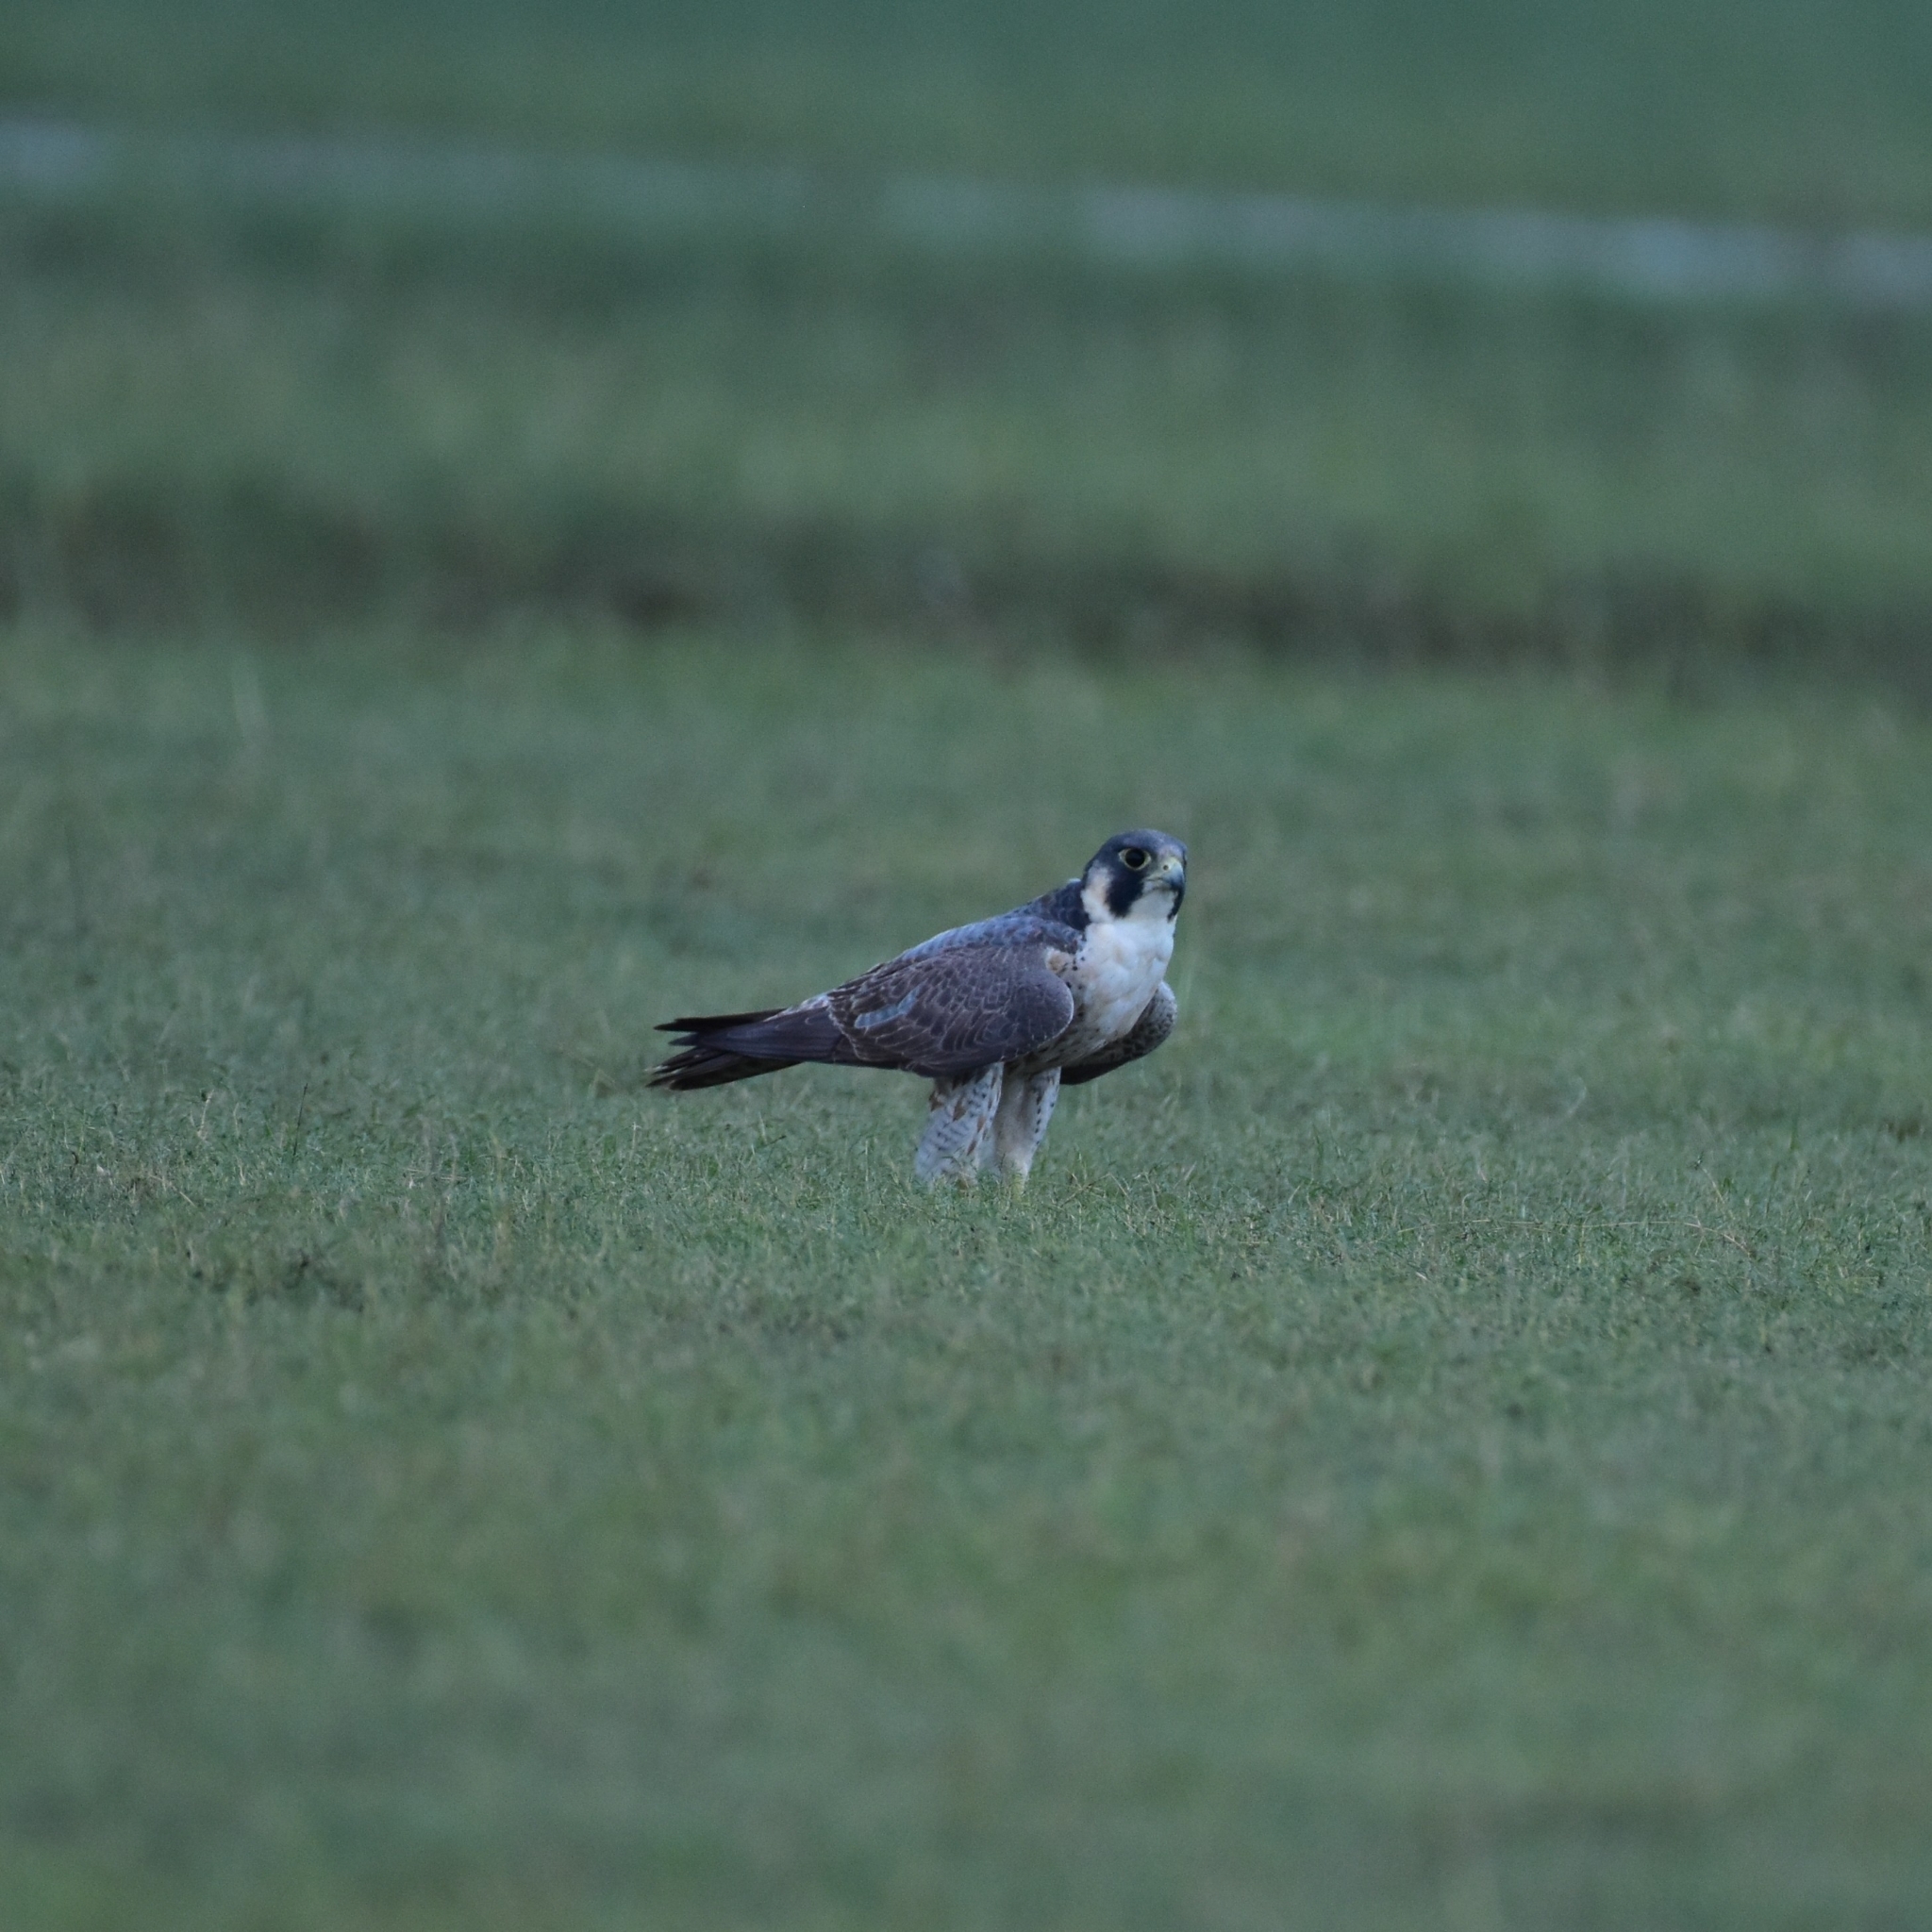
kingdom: Animalia
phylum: Chordata
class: Aves
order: Falconiformes
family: Falconidae
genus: Falco
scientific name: Falco peregrinus
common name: Peregrine falcon
